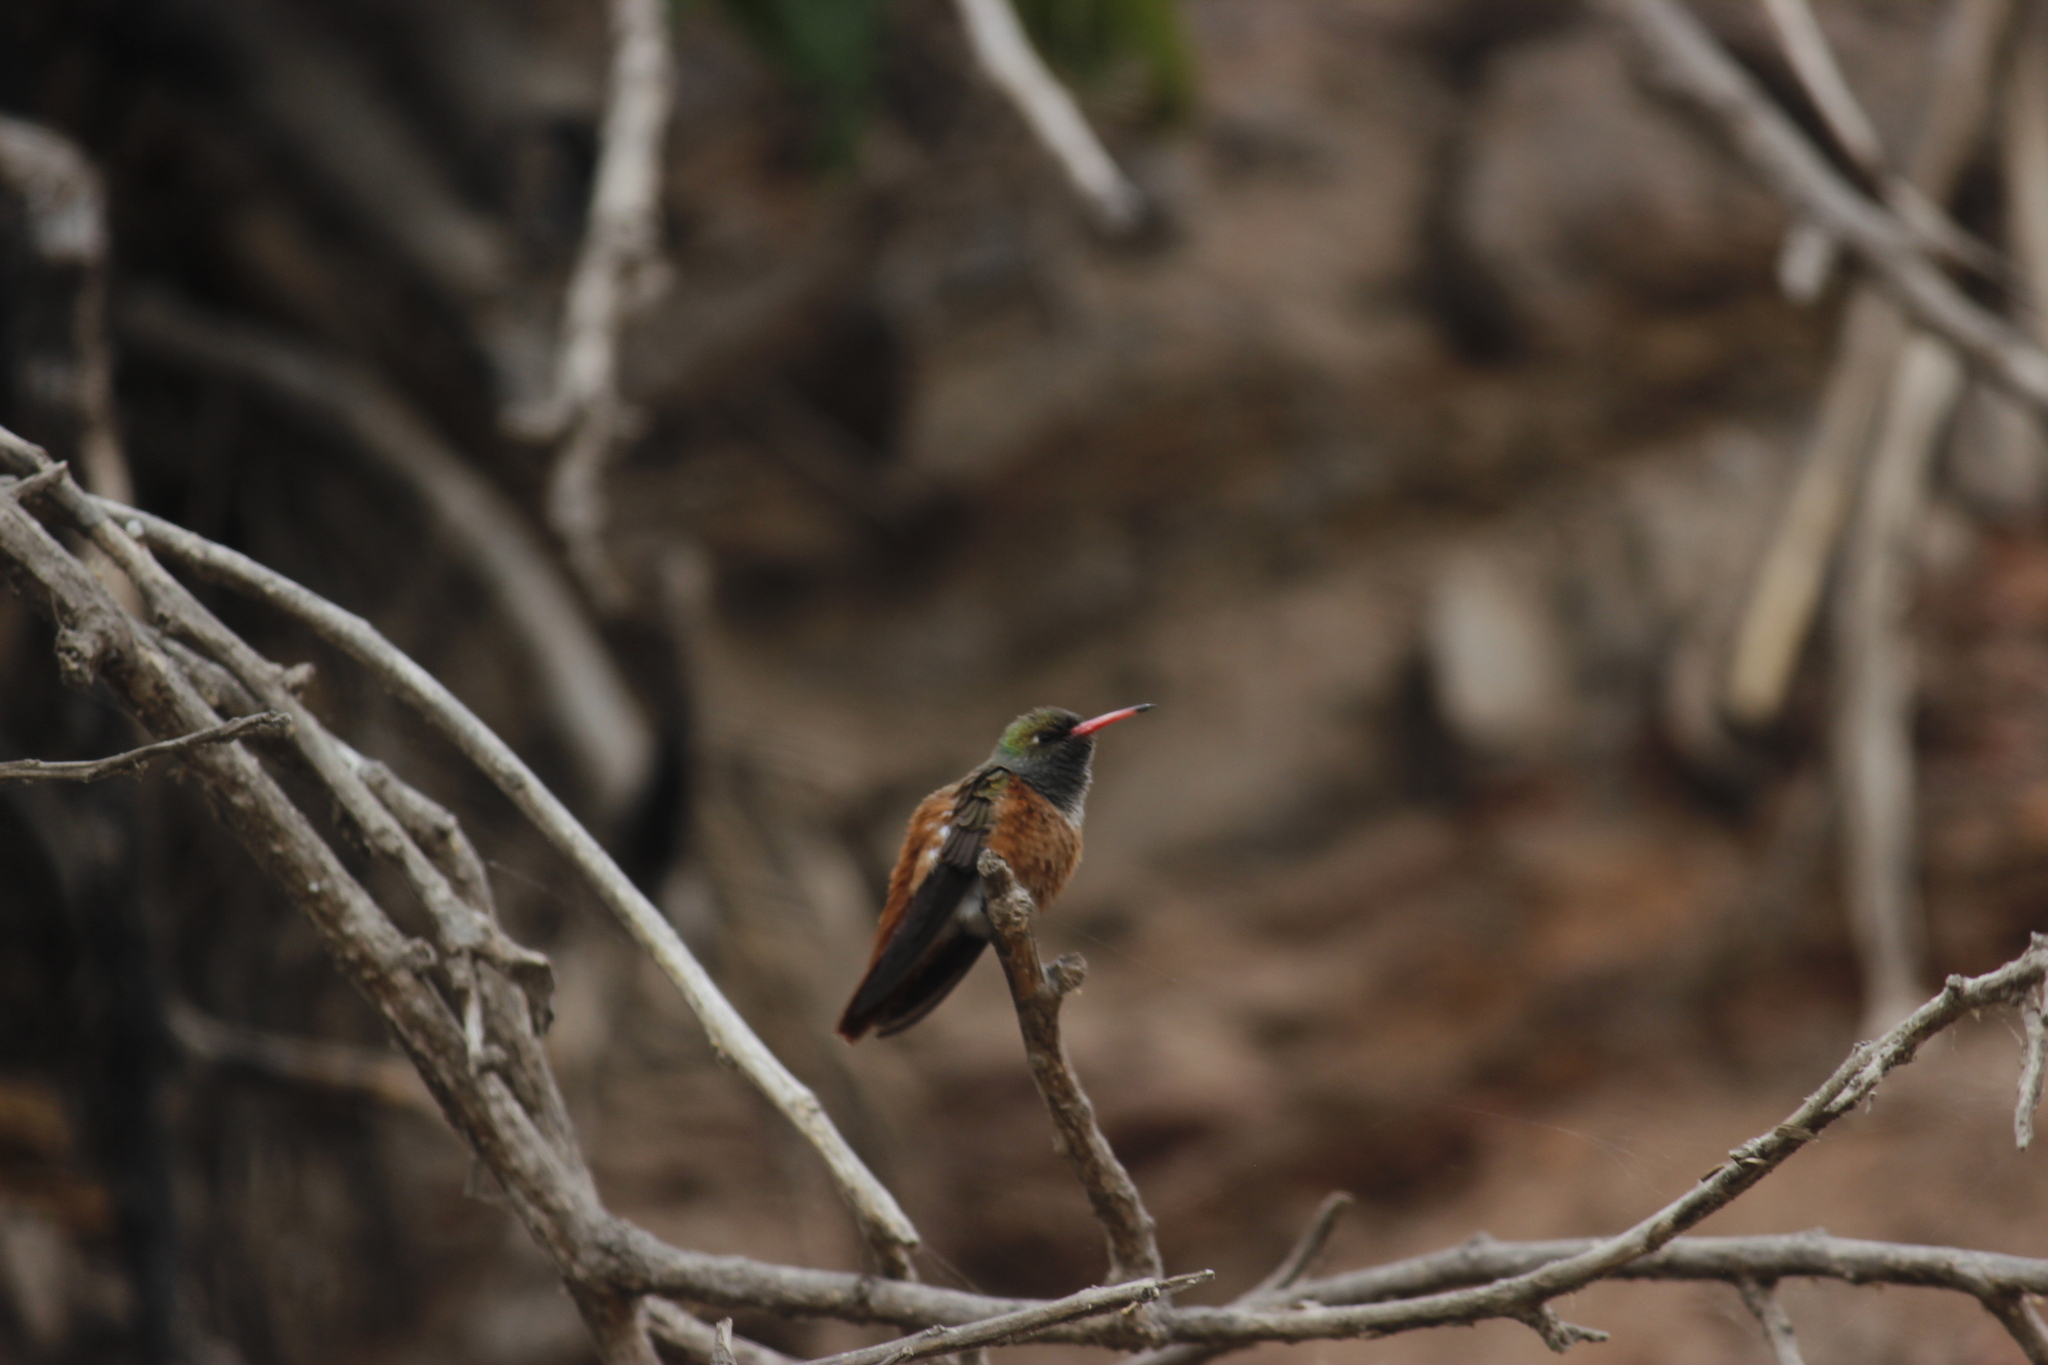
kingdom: Animalia
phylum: Chordata
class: Aves
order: Apodiformes
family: Trochilidae
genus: Amazilis
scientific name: Amazilis amazilia
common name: Amazilia hummingbird
